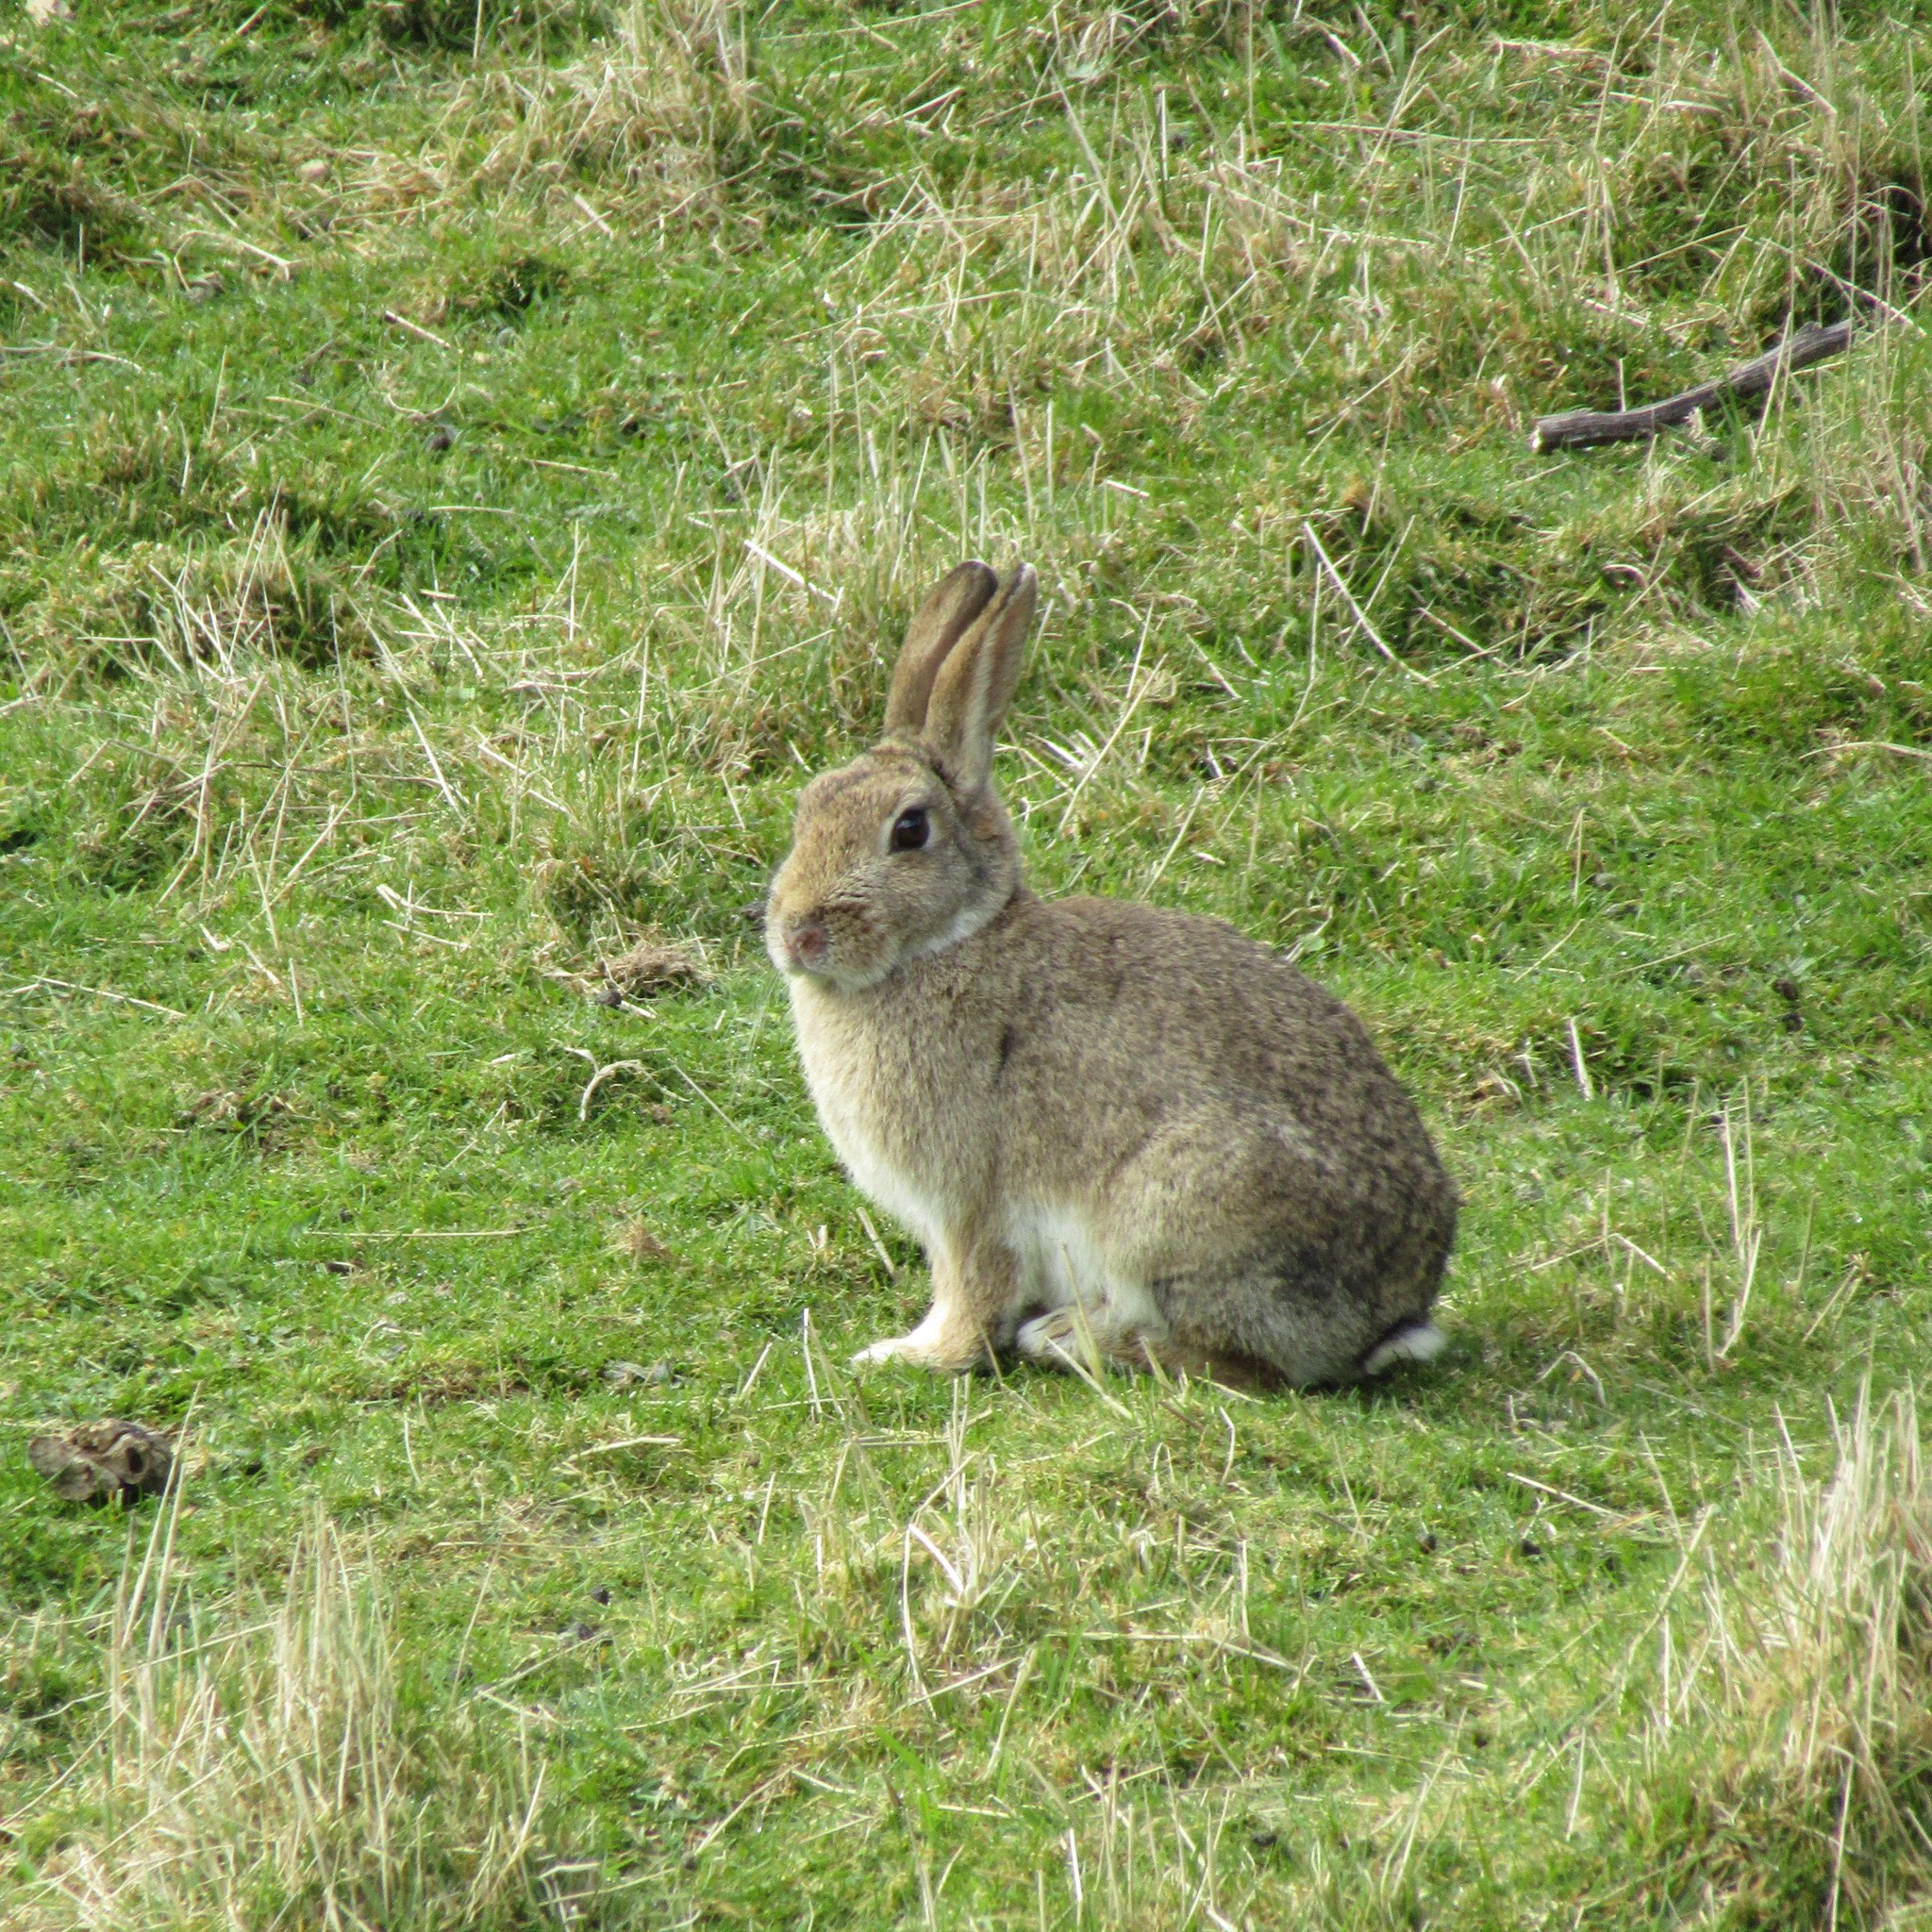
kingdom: Animalia
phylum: Chordata
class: Mammalia
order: Lagomorpha
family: Leporidae
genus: Oryctolagus
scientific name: Oryctolagus cuniculus
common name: European rabbit
